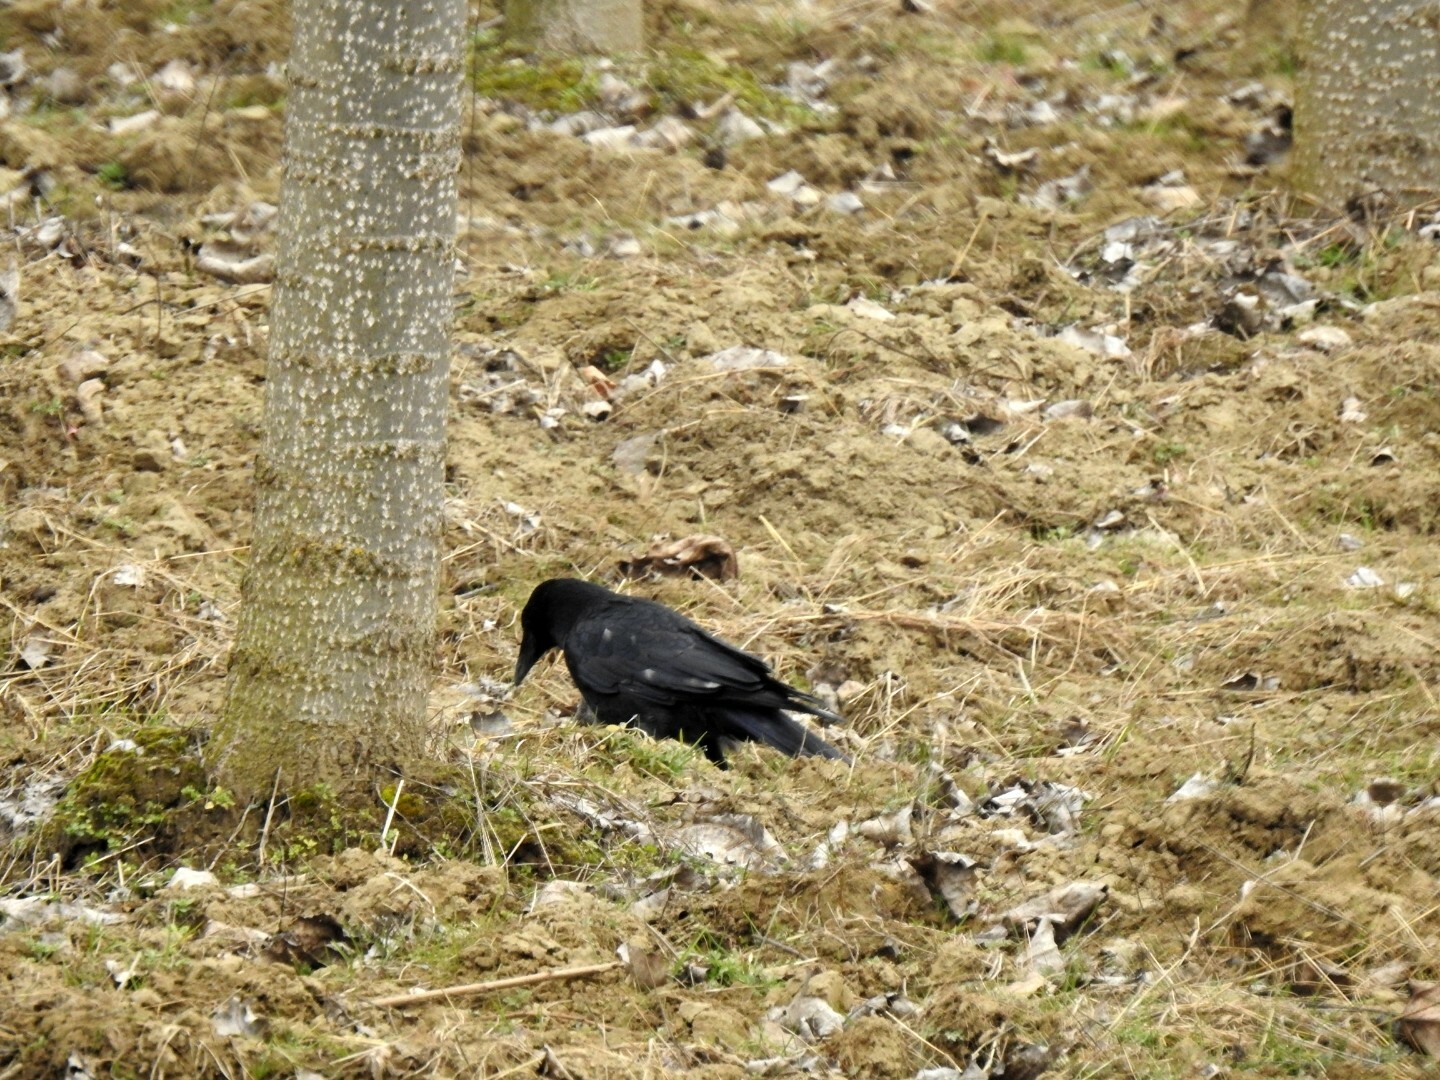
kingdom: Animalia
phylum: Chordata
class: Aves
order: Passeriformes
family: Muscicapidae
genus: Erithacus
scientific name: Erithacus rubecula
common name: European robin
